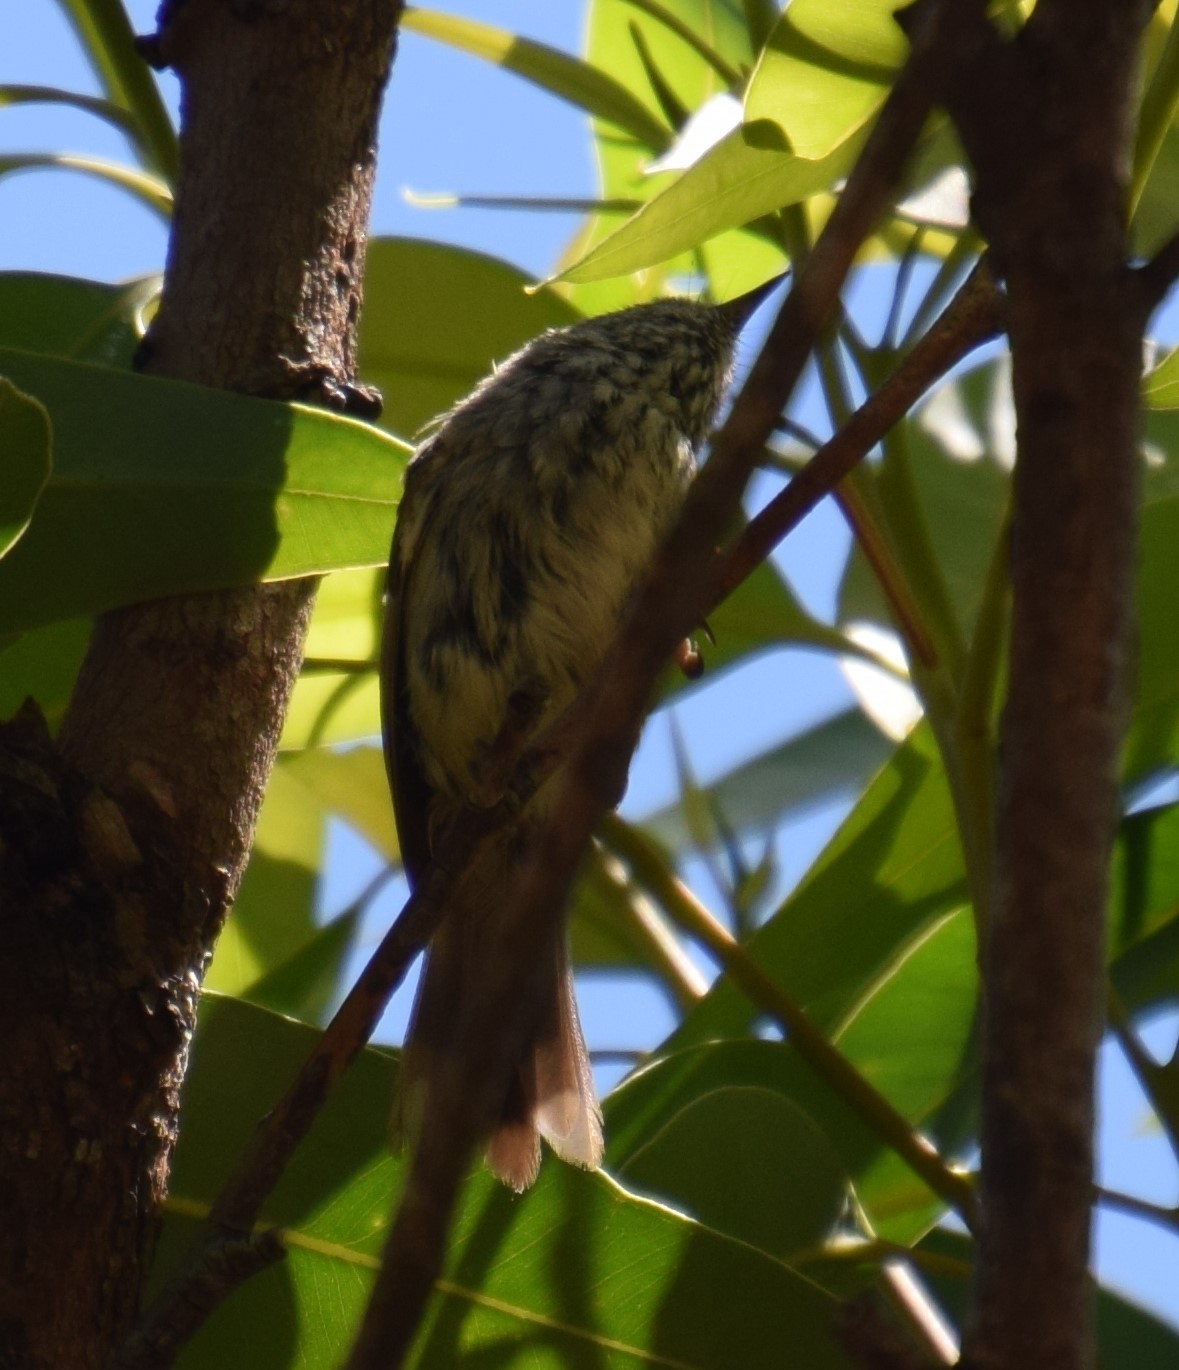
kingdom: Animalia
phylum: Chordata
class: Aves
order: Passeriformes
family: Acanthizidae
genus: Acanthiza
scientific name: Acanthiza pusilla
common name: Brown thornbill
